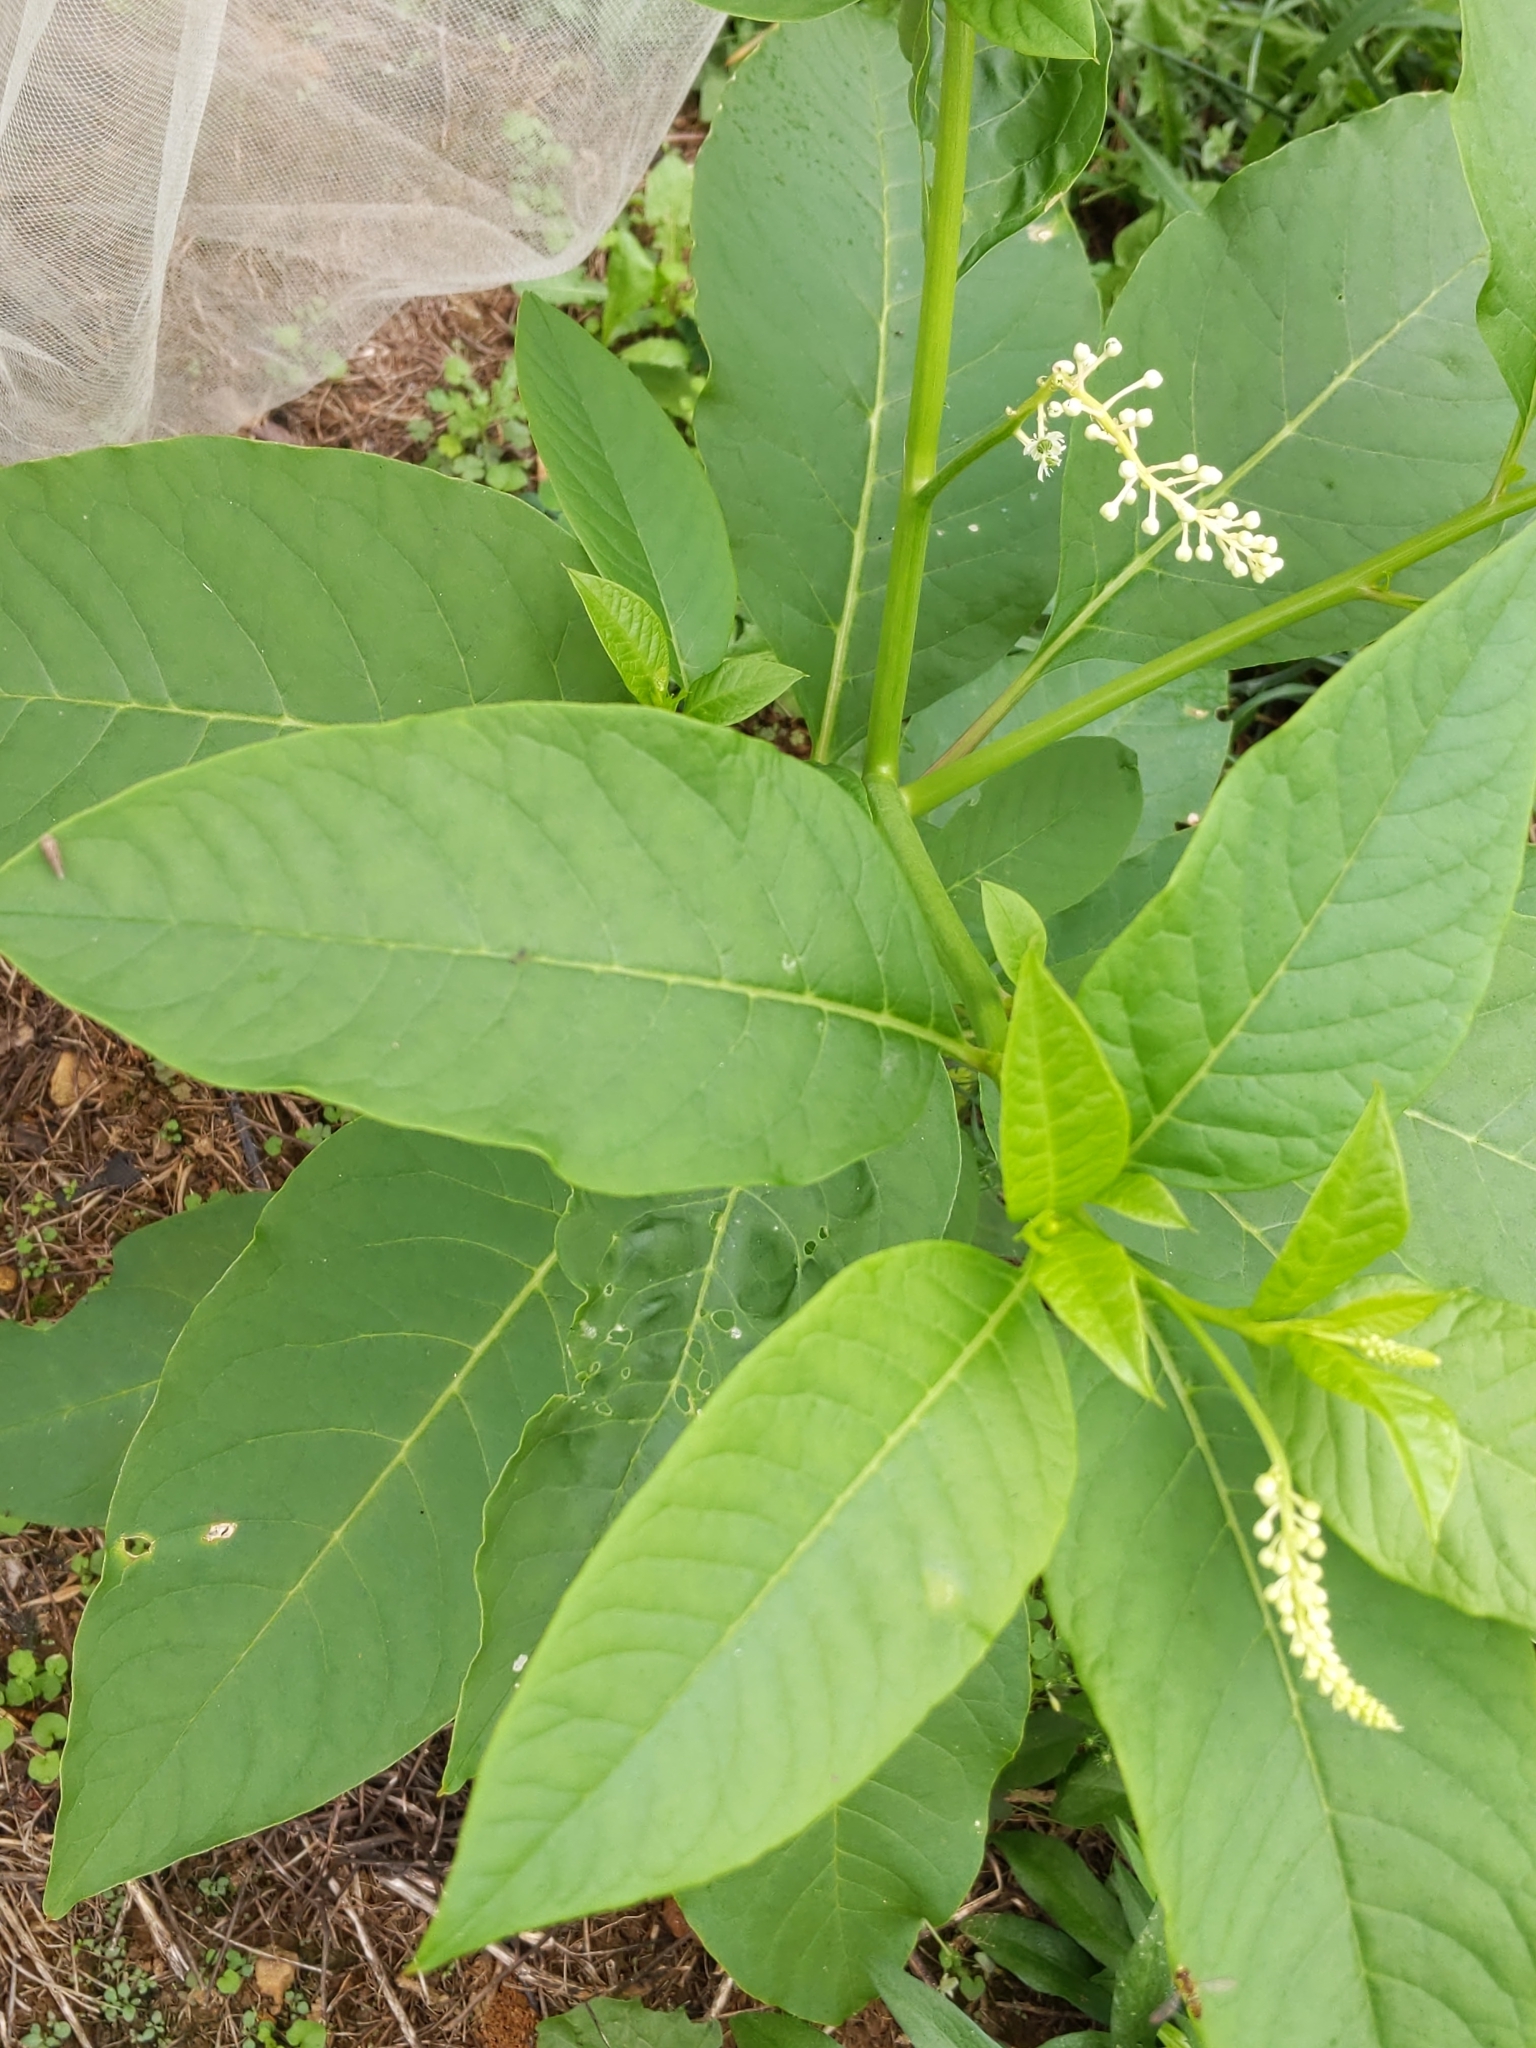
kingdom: Plantae
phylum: Tracheophyta
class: Magnoliopsida
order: Caryophyllales
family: Phytolaccaceae
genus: Phytolacca
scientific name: Phytolacca americana
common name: American pokeweed
